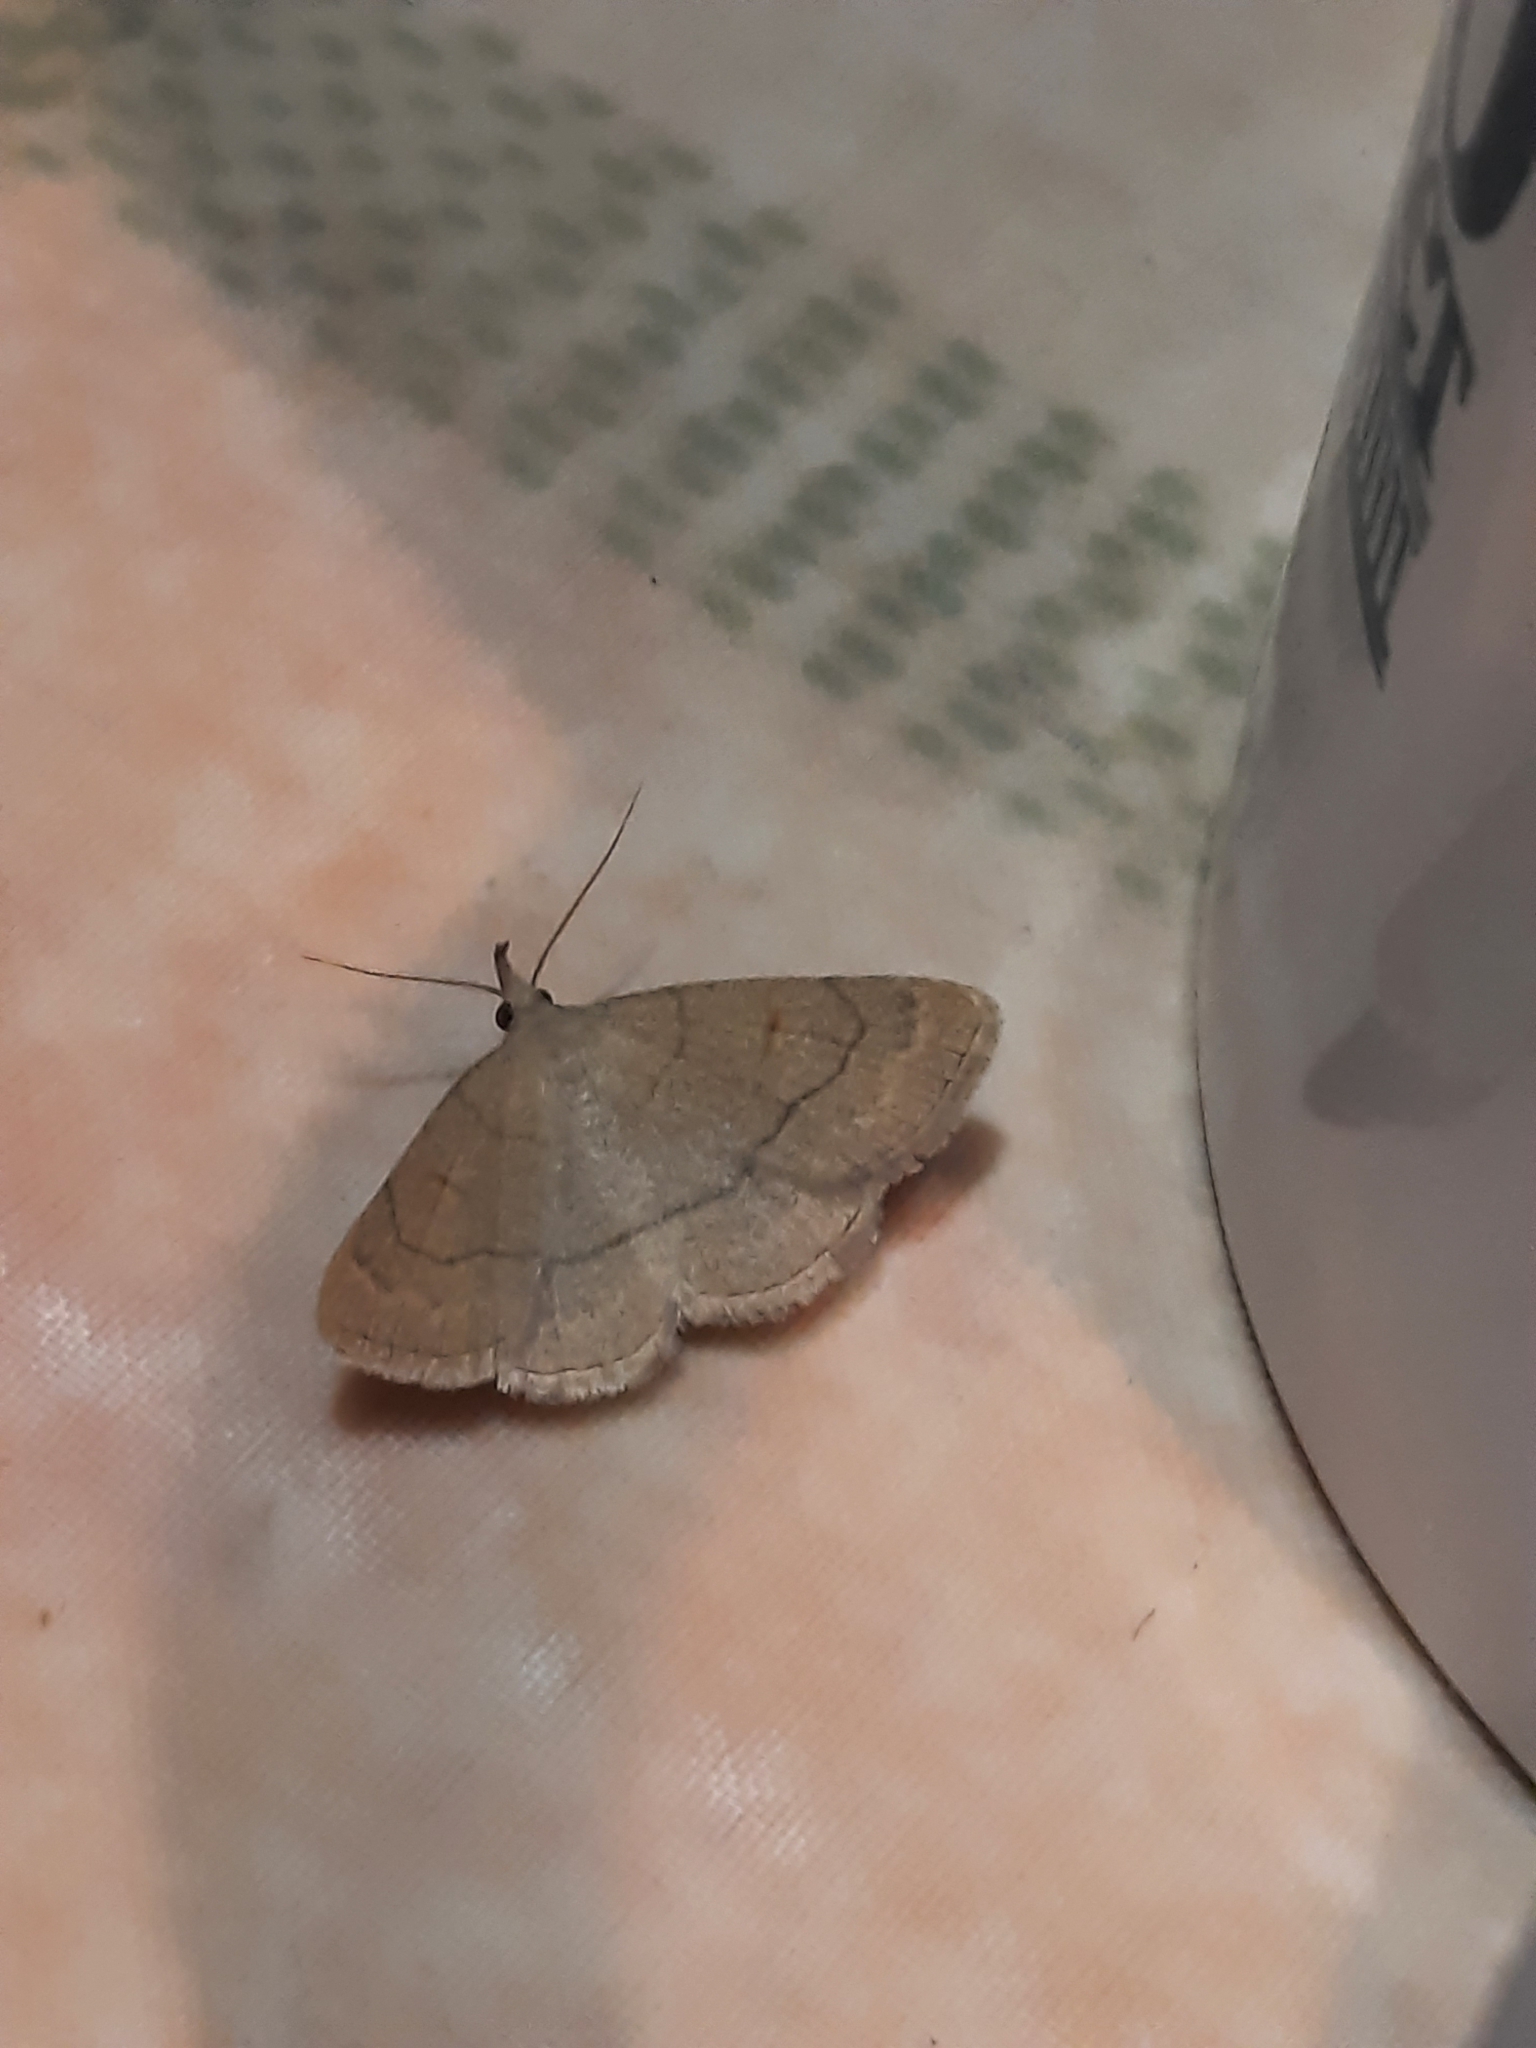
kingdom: Animalia
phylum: Arthropoda
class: Insecta
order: Lepidoptera
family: Erebidae
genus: Paracolax
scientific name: Paracolax tristalis
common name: Clay fan-foot
